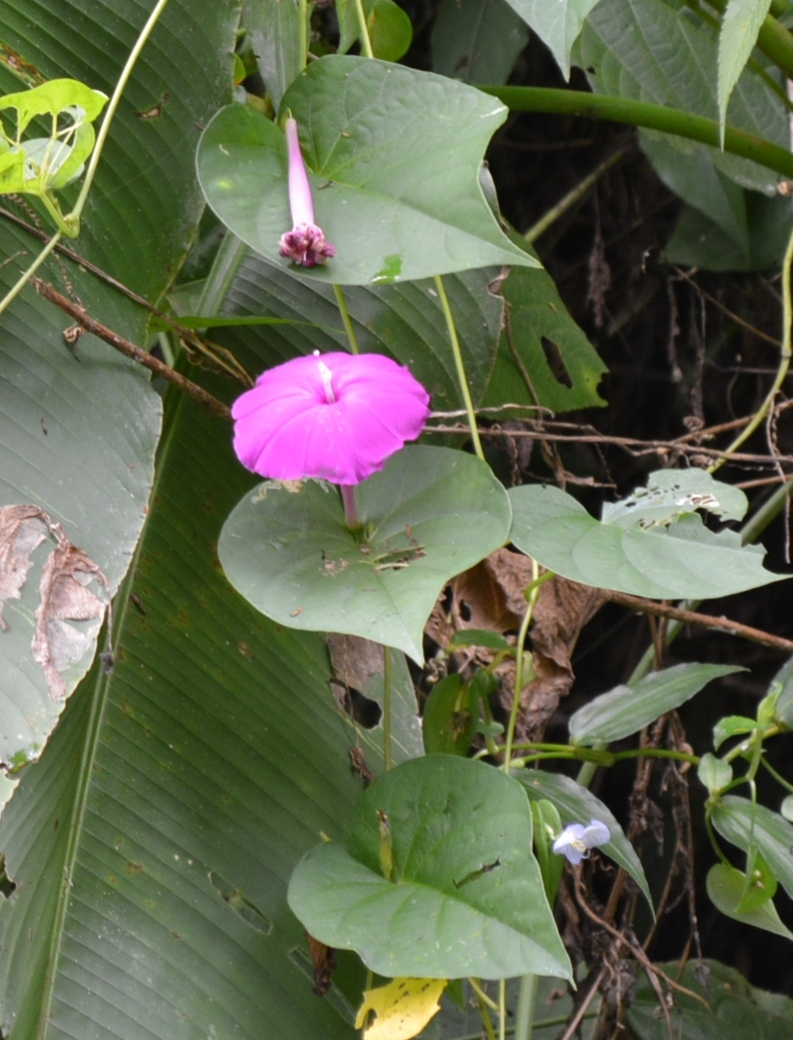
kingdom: Plantae
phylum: Tracheophyta
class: Magnoliopsida
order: Solanales
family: Convolvulaceae
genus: Ipomoea
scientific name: Ipomoea dumosa
